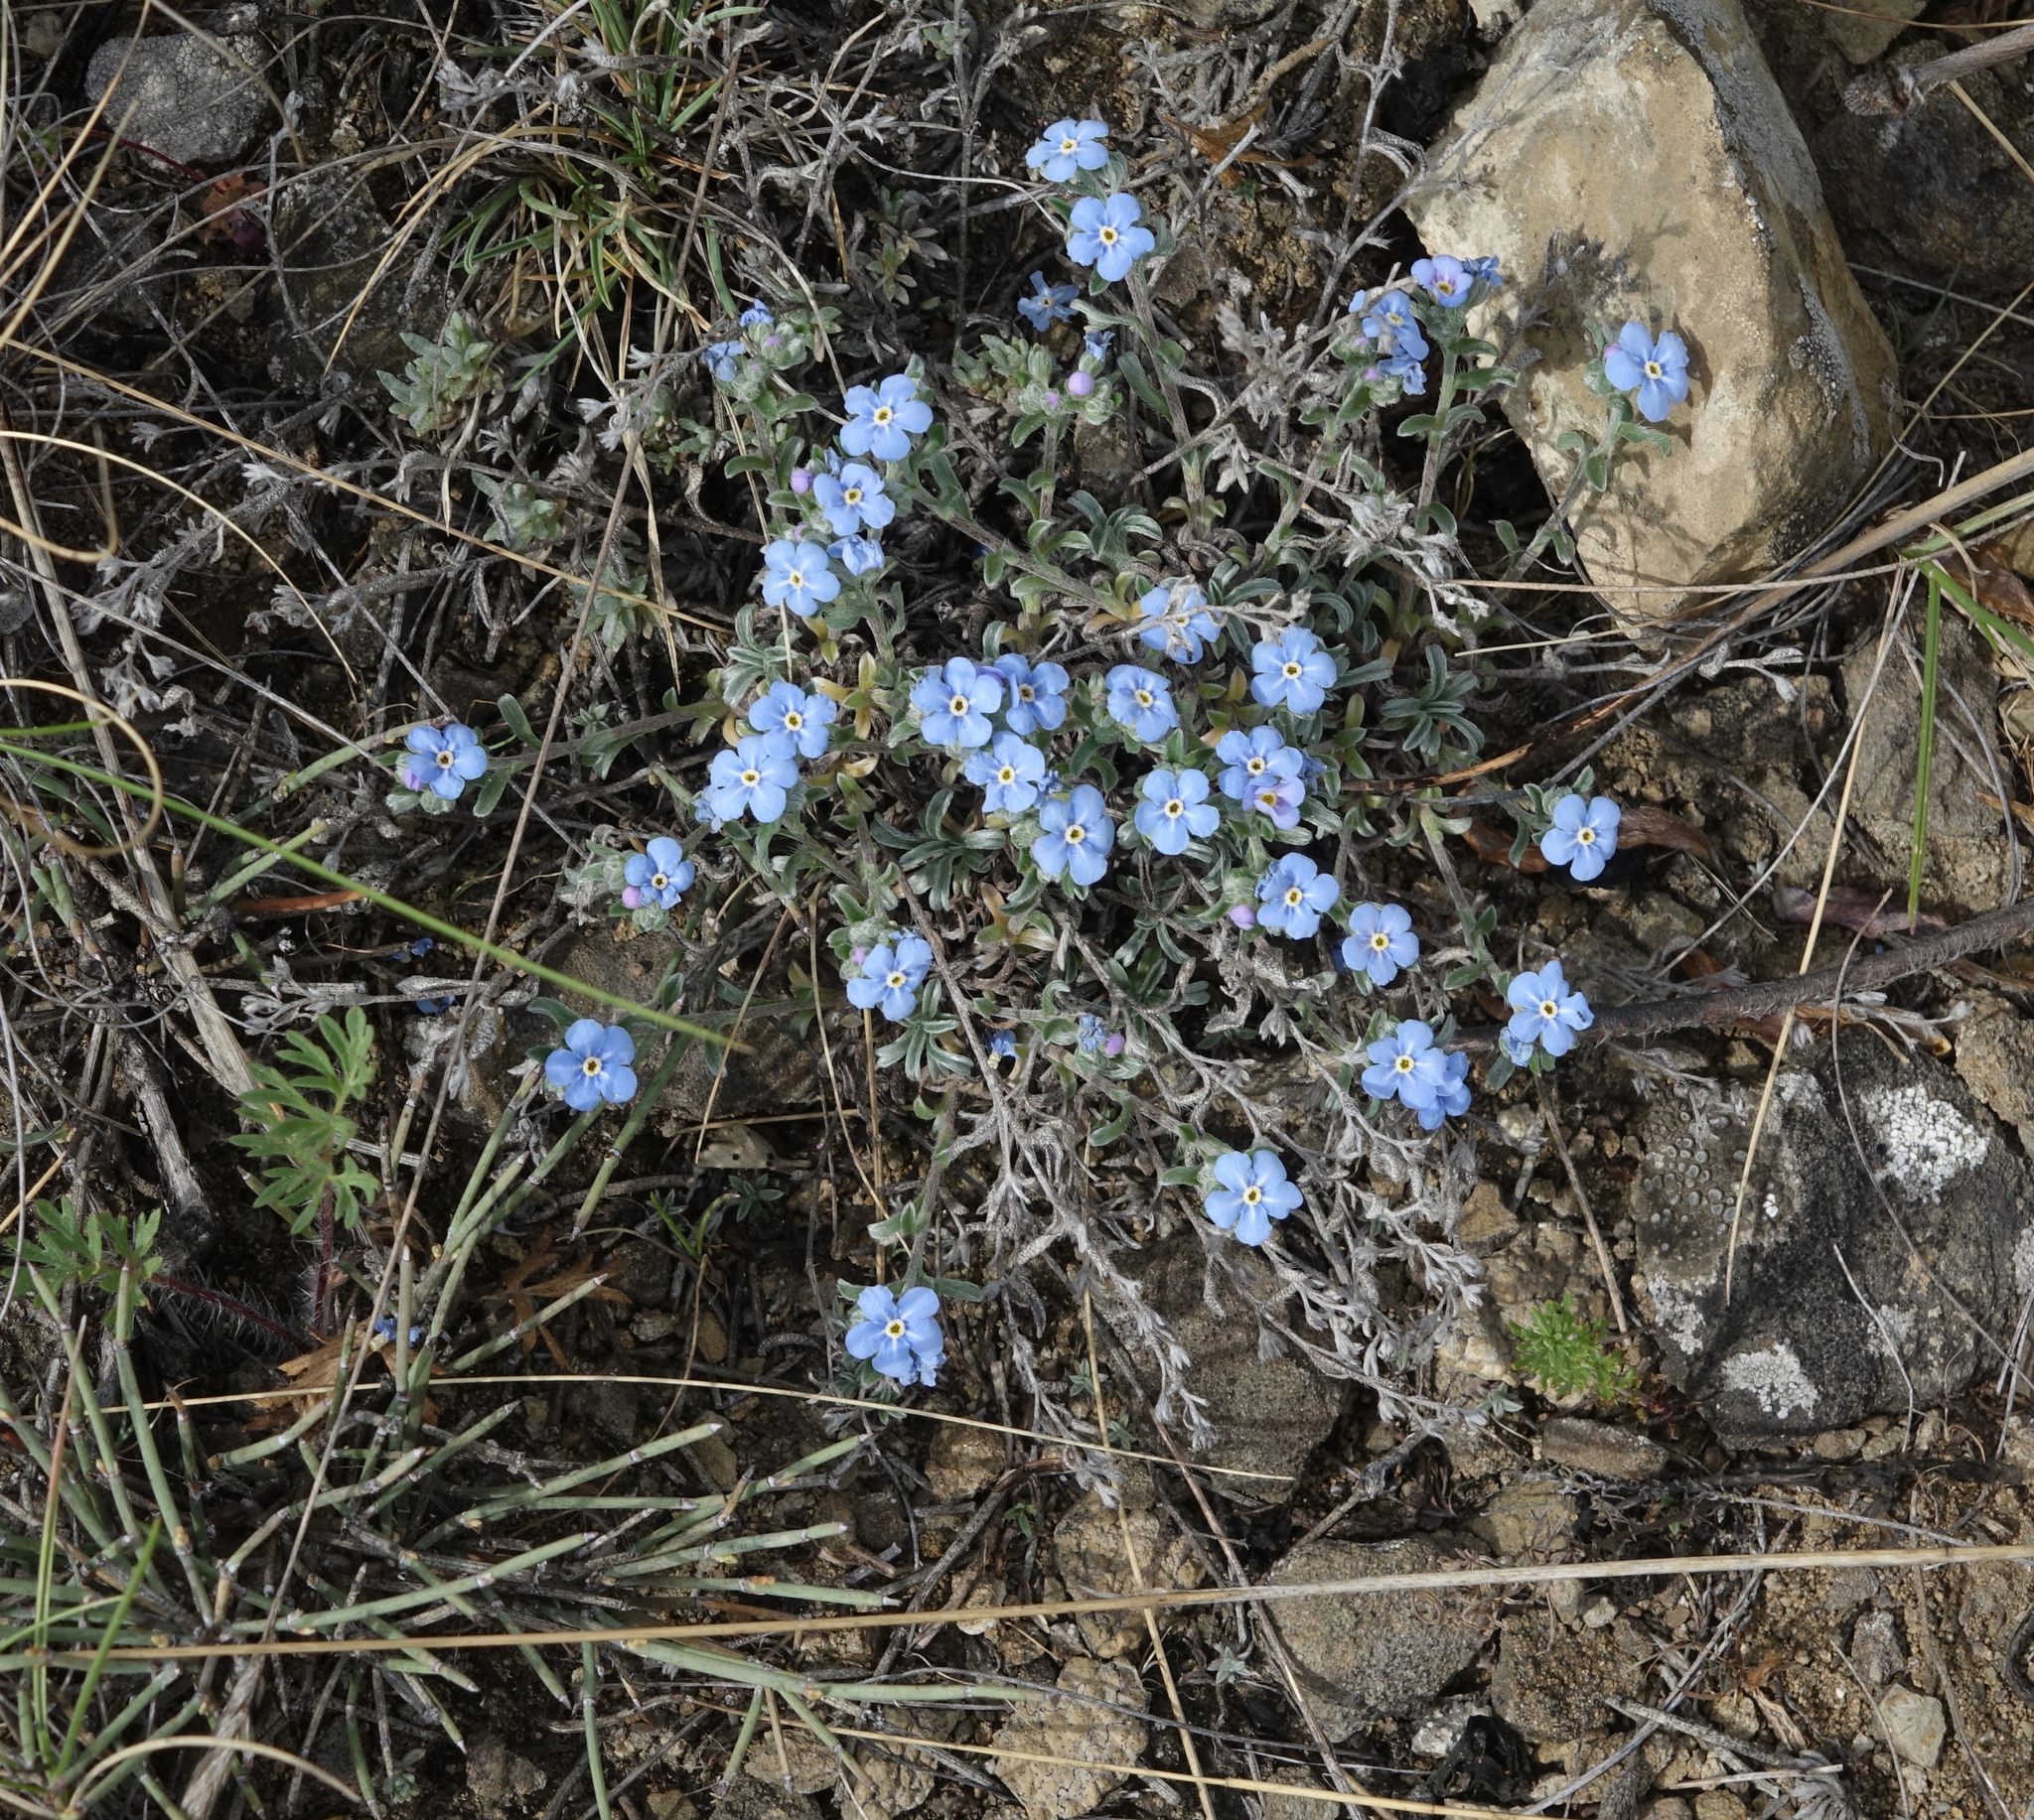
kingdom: Plantae
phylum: Tracheophyta
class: Magnoliopsida
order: Boraginales
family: Boraginaceae
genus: Eritrichium
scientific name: Eritrichium rupestre
